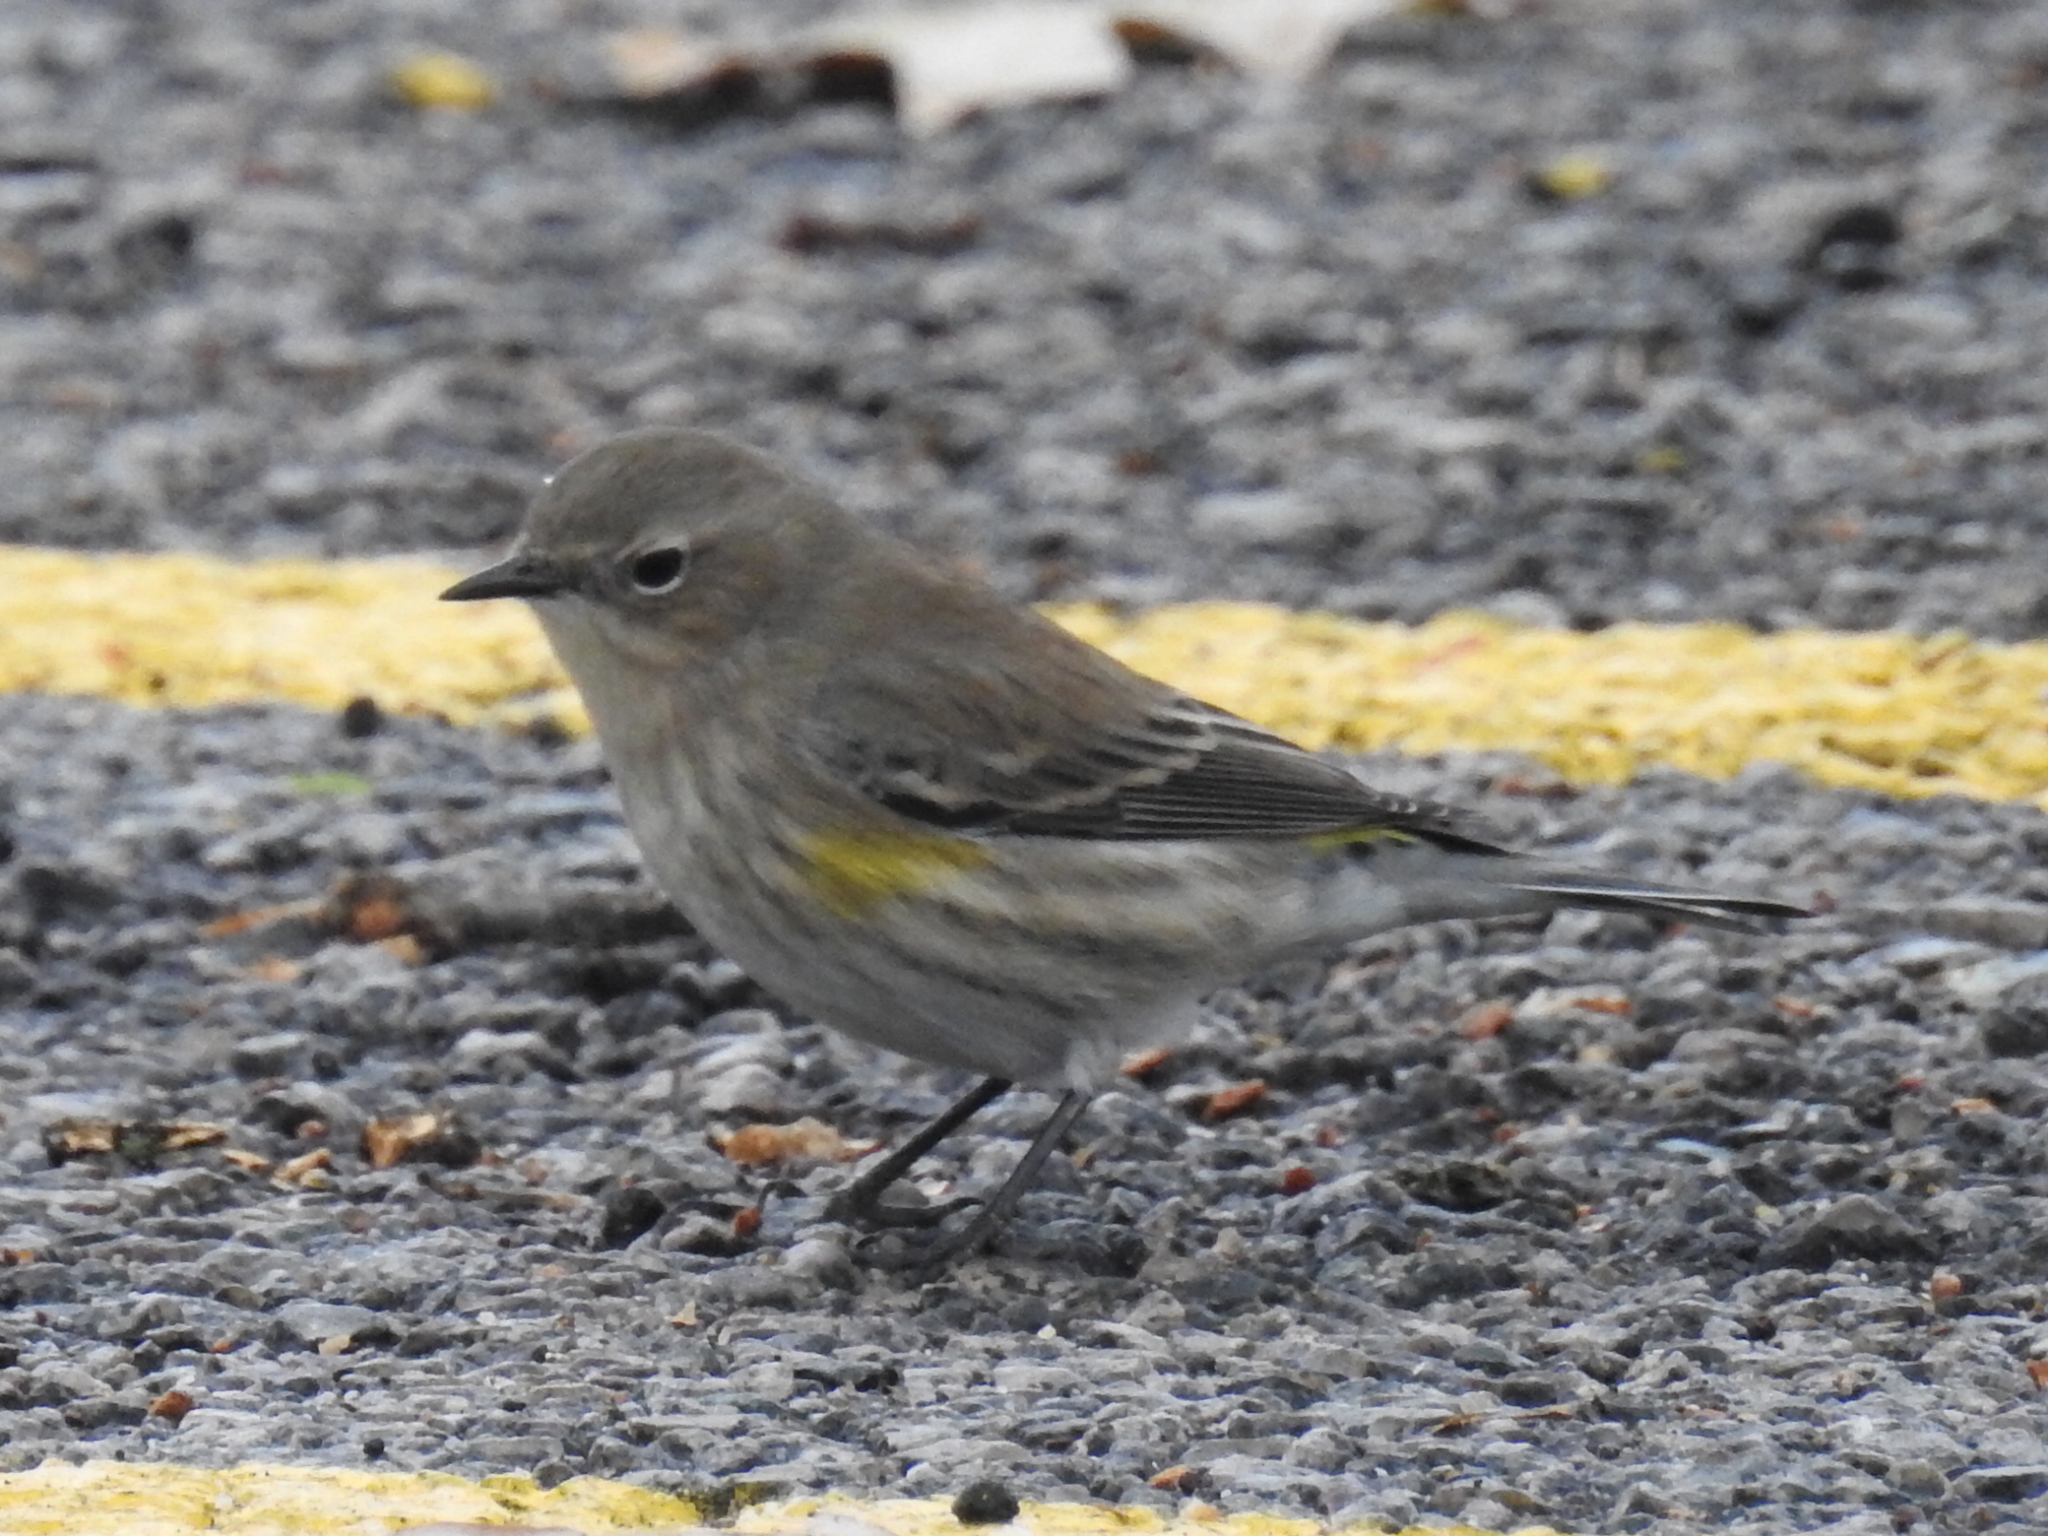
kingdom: Animalia
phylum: Chordata
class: Aves
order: Passeriformes
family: Parulidae
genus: Setophaga
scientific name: Setophaga coronata
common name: Myrtle warbler
